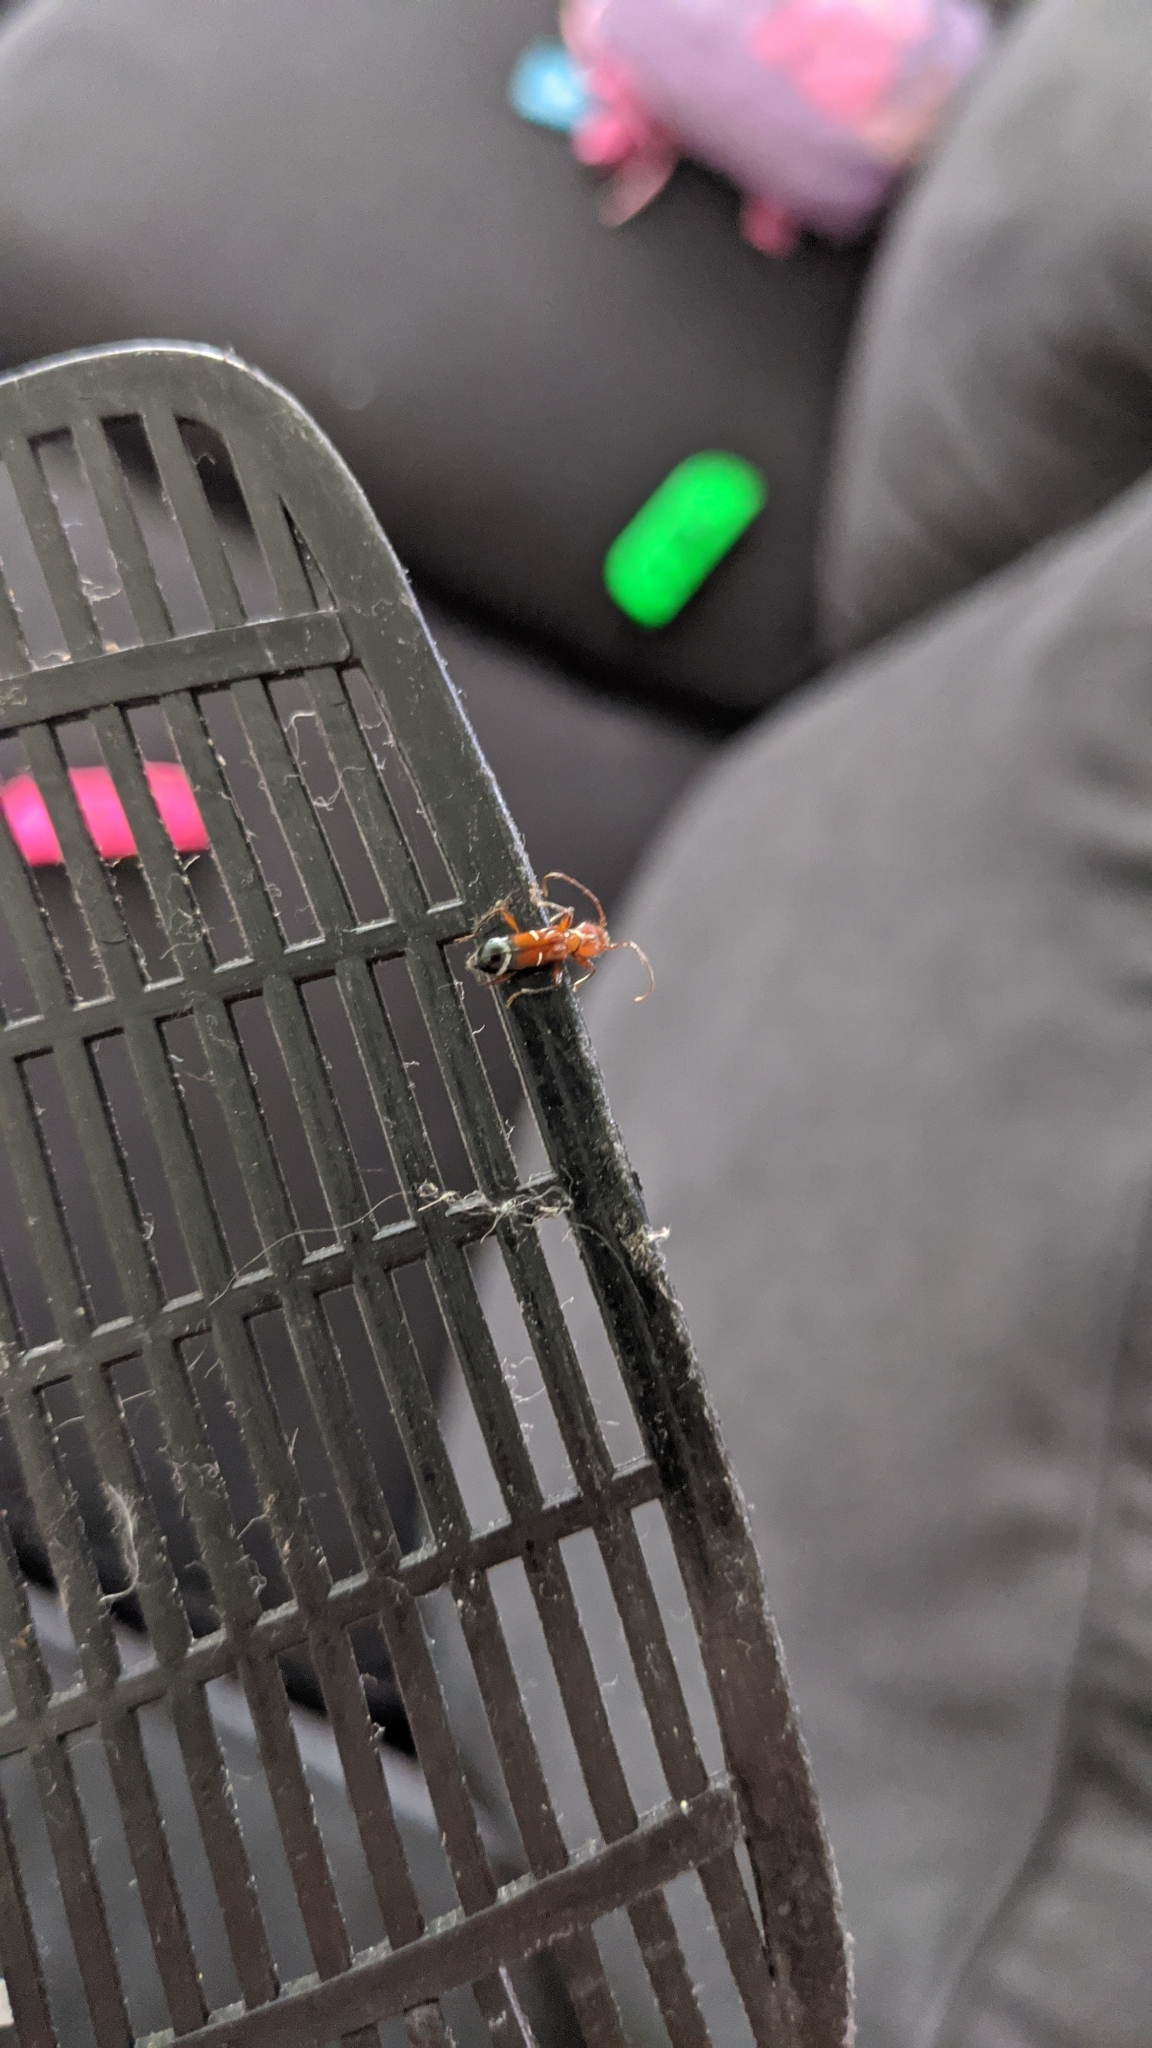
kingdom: Animalia
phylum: Arthropoda
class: Insecta
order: Coleoptera
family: Cerambycidae
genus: Euderces
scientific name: Euderces pini
